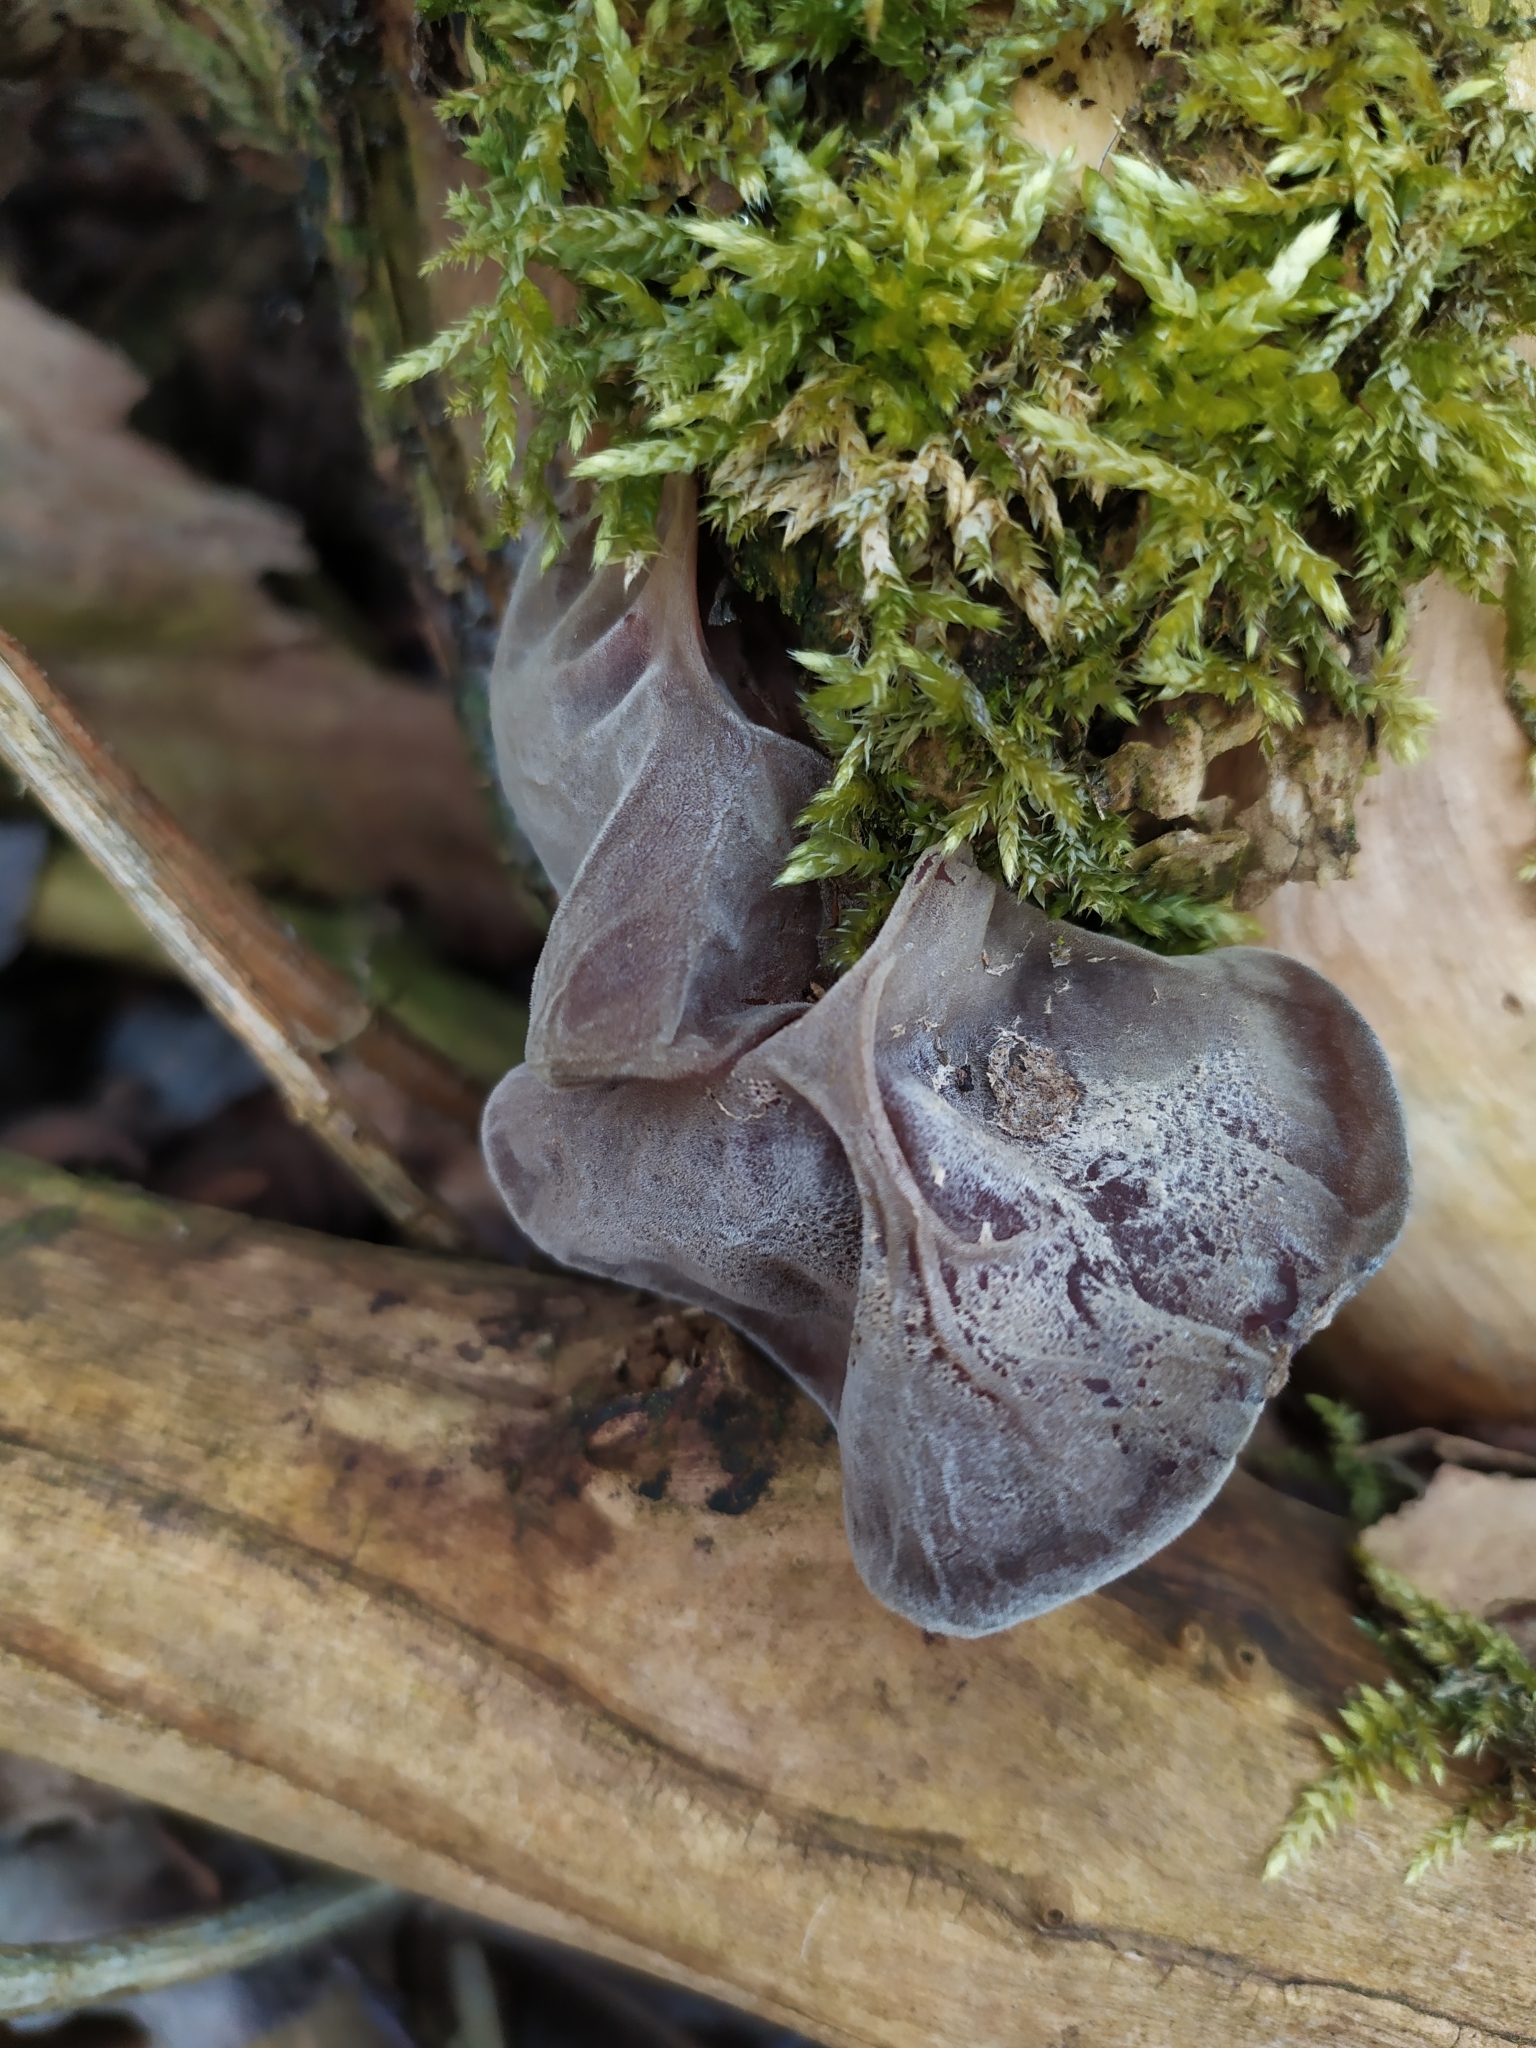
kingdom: Fungi
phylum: Basidiomycota
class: Agaricomycetes
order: Auriculariales
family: Auriculariaceae
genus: Auricularia
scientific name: Auricularia auricula-judae
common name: Jelly ear
